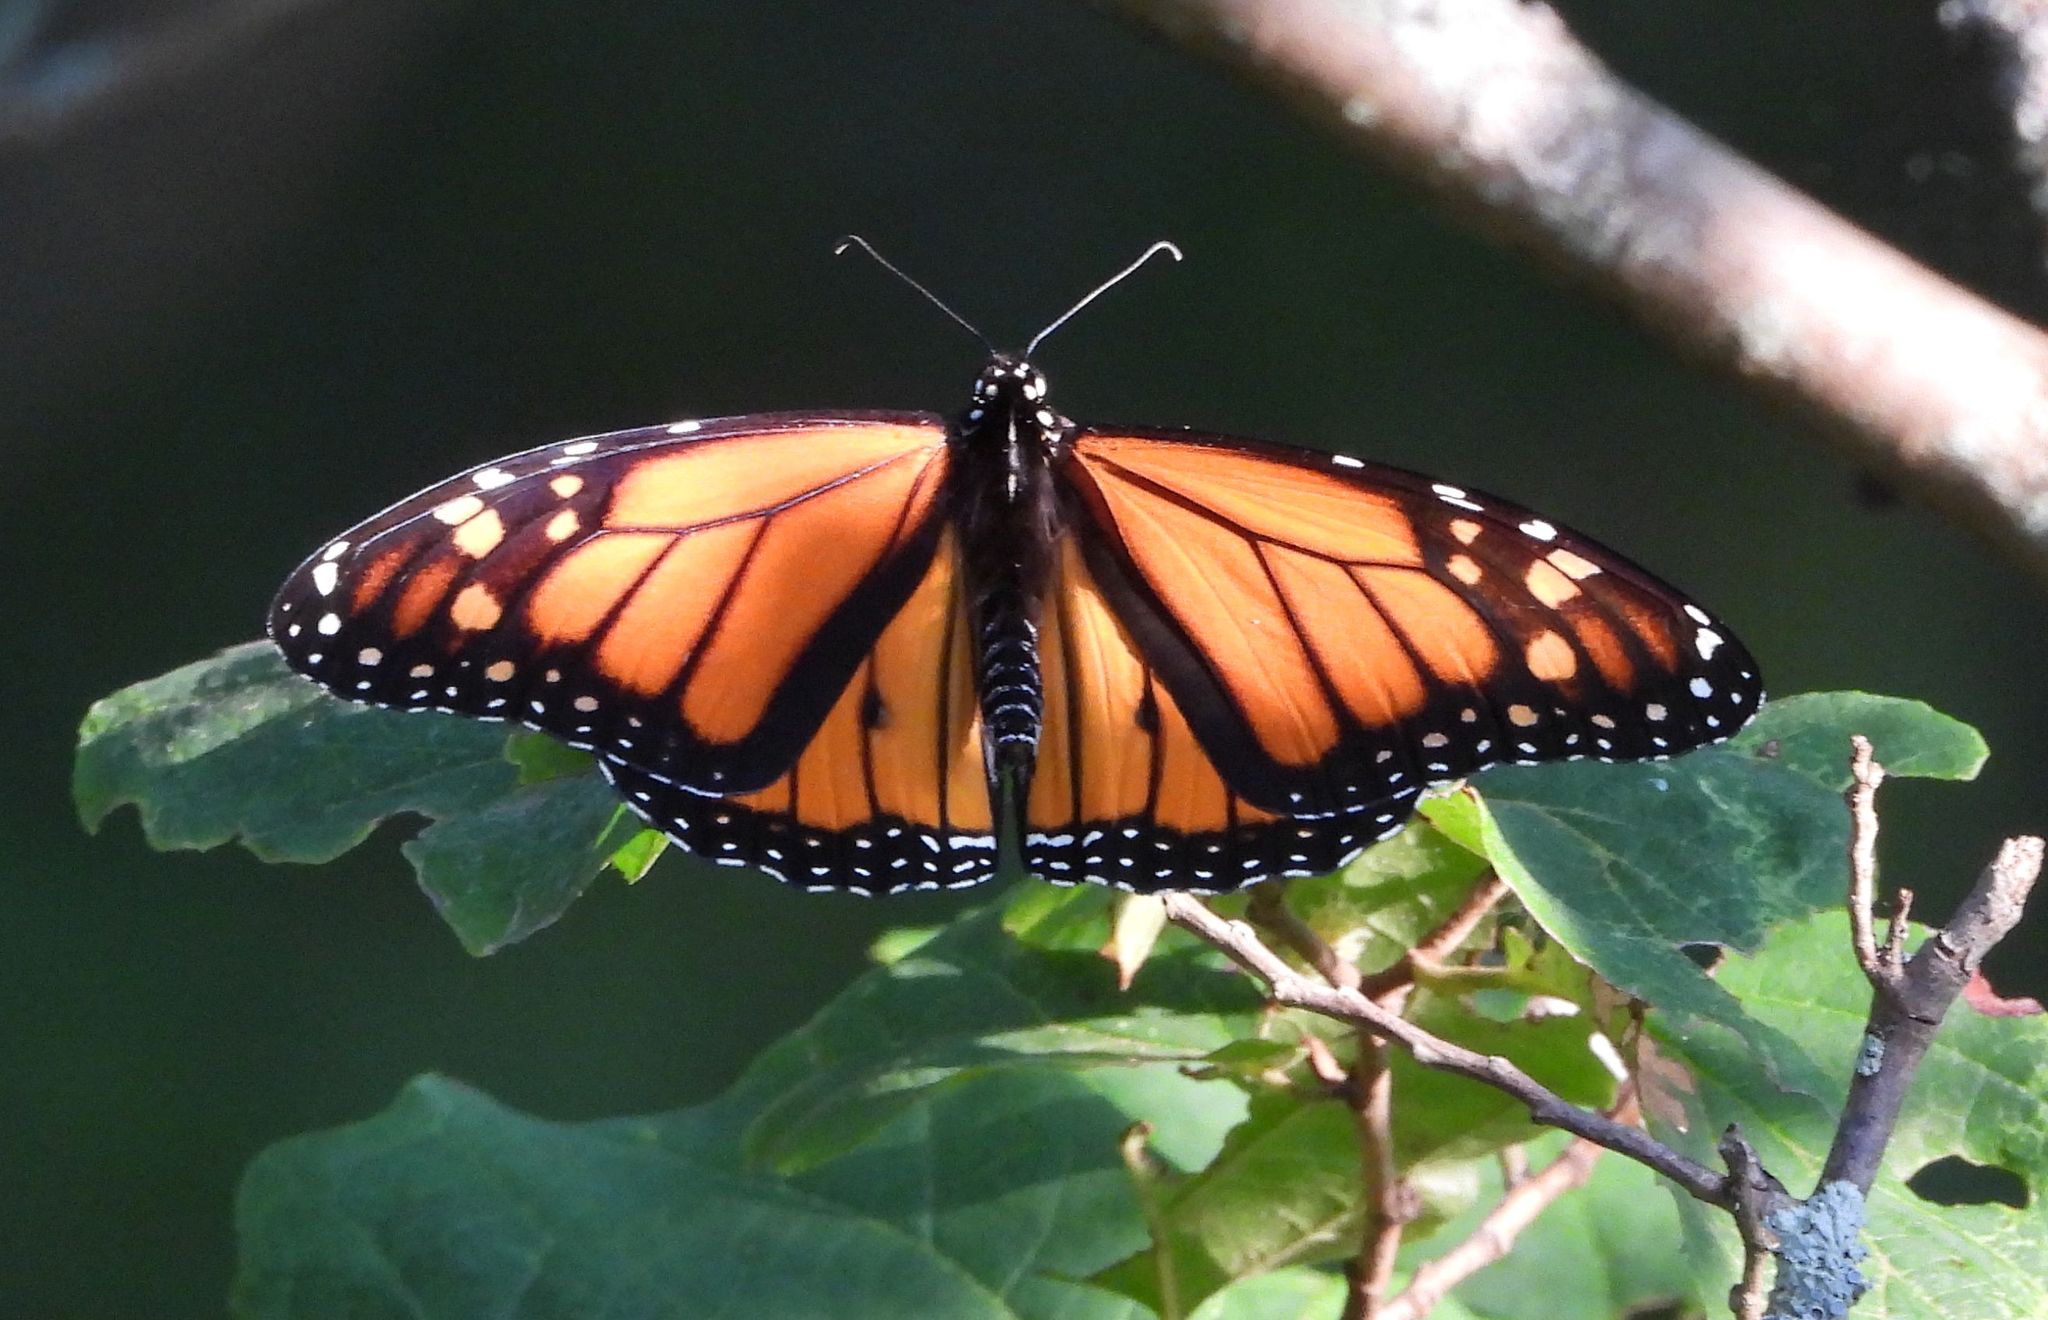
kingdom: Animalia
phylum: Arthropoda
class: Insecta
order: Lepidoptera
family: Nymphalidae
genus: Danaus
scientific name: Danaus plexippus
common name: Monarch
